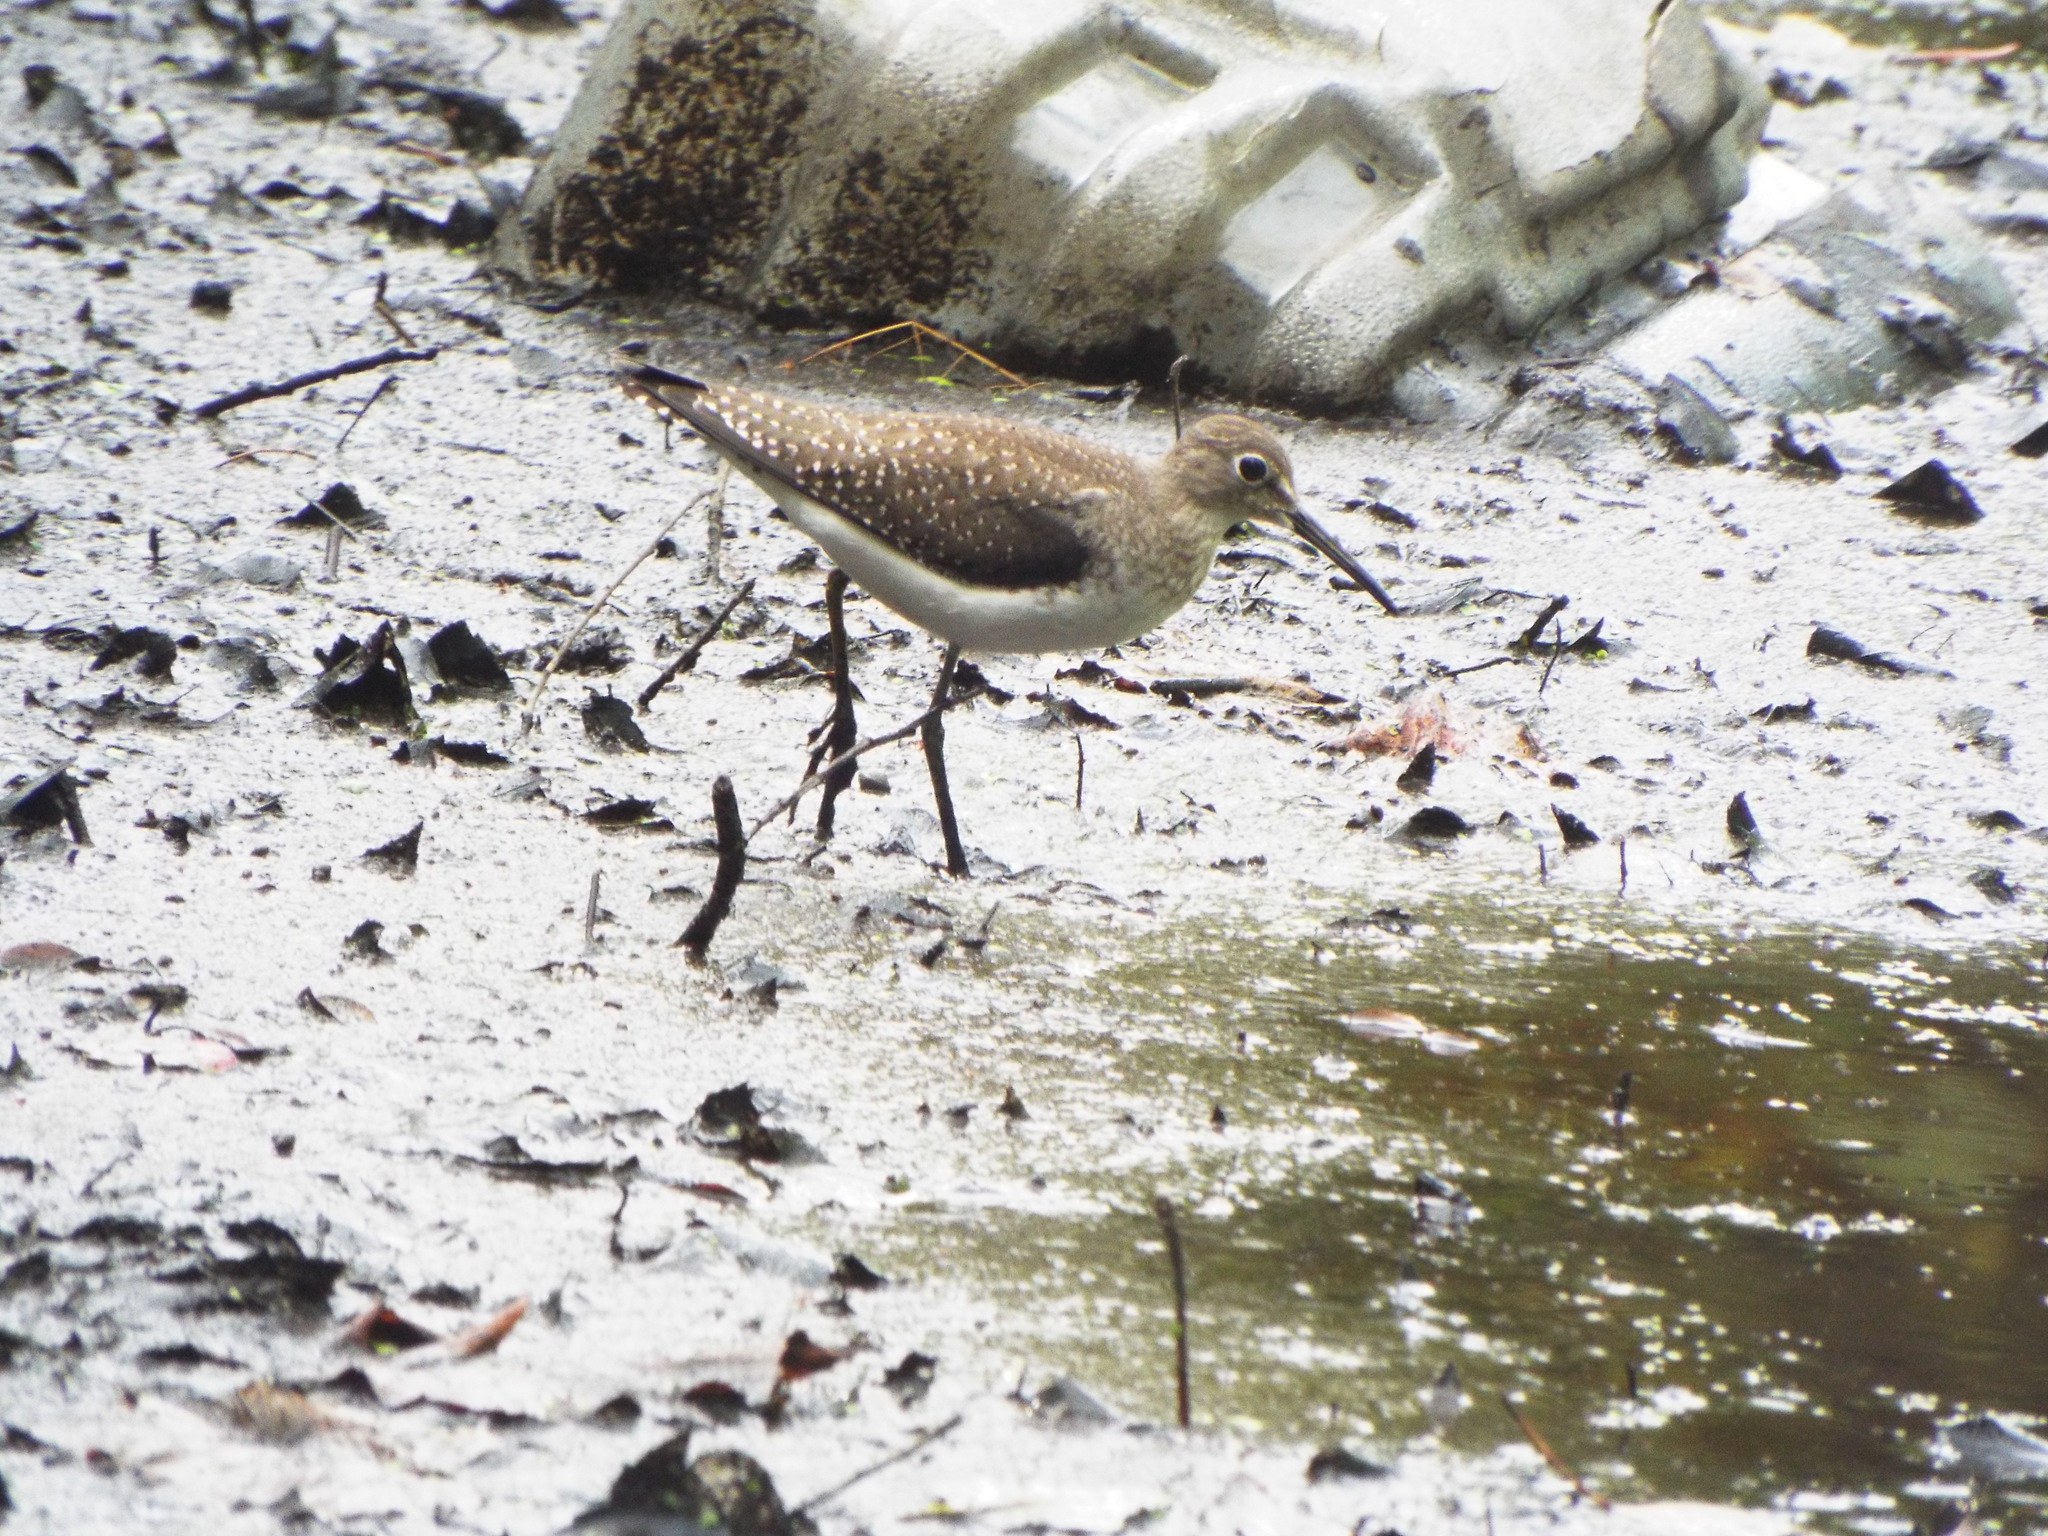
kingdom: Animalia
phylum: Chordata
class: Aves
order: Charadriiformes
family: Scolopacidae
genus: Tringa
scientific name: Tringa solitaria
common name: Solitary sandpiper
